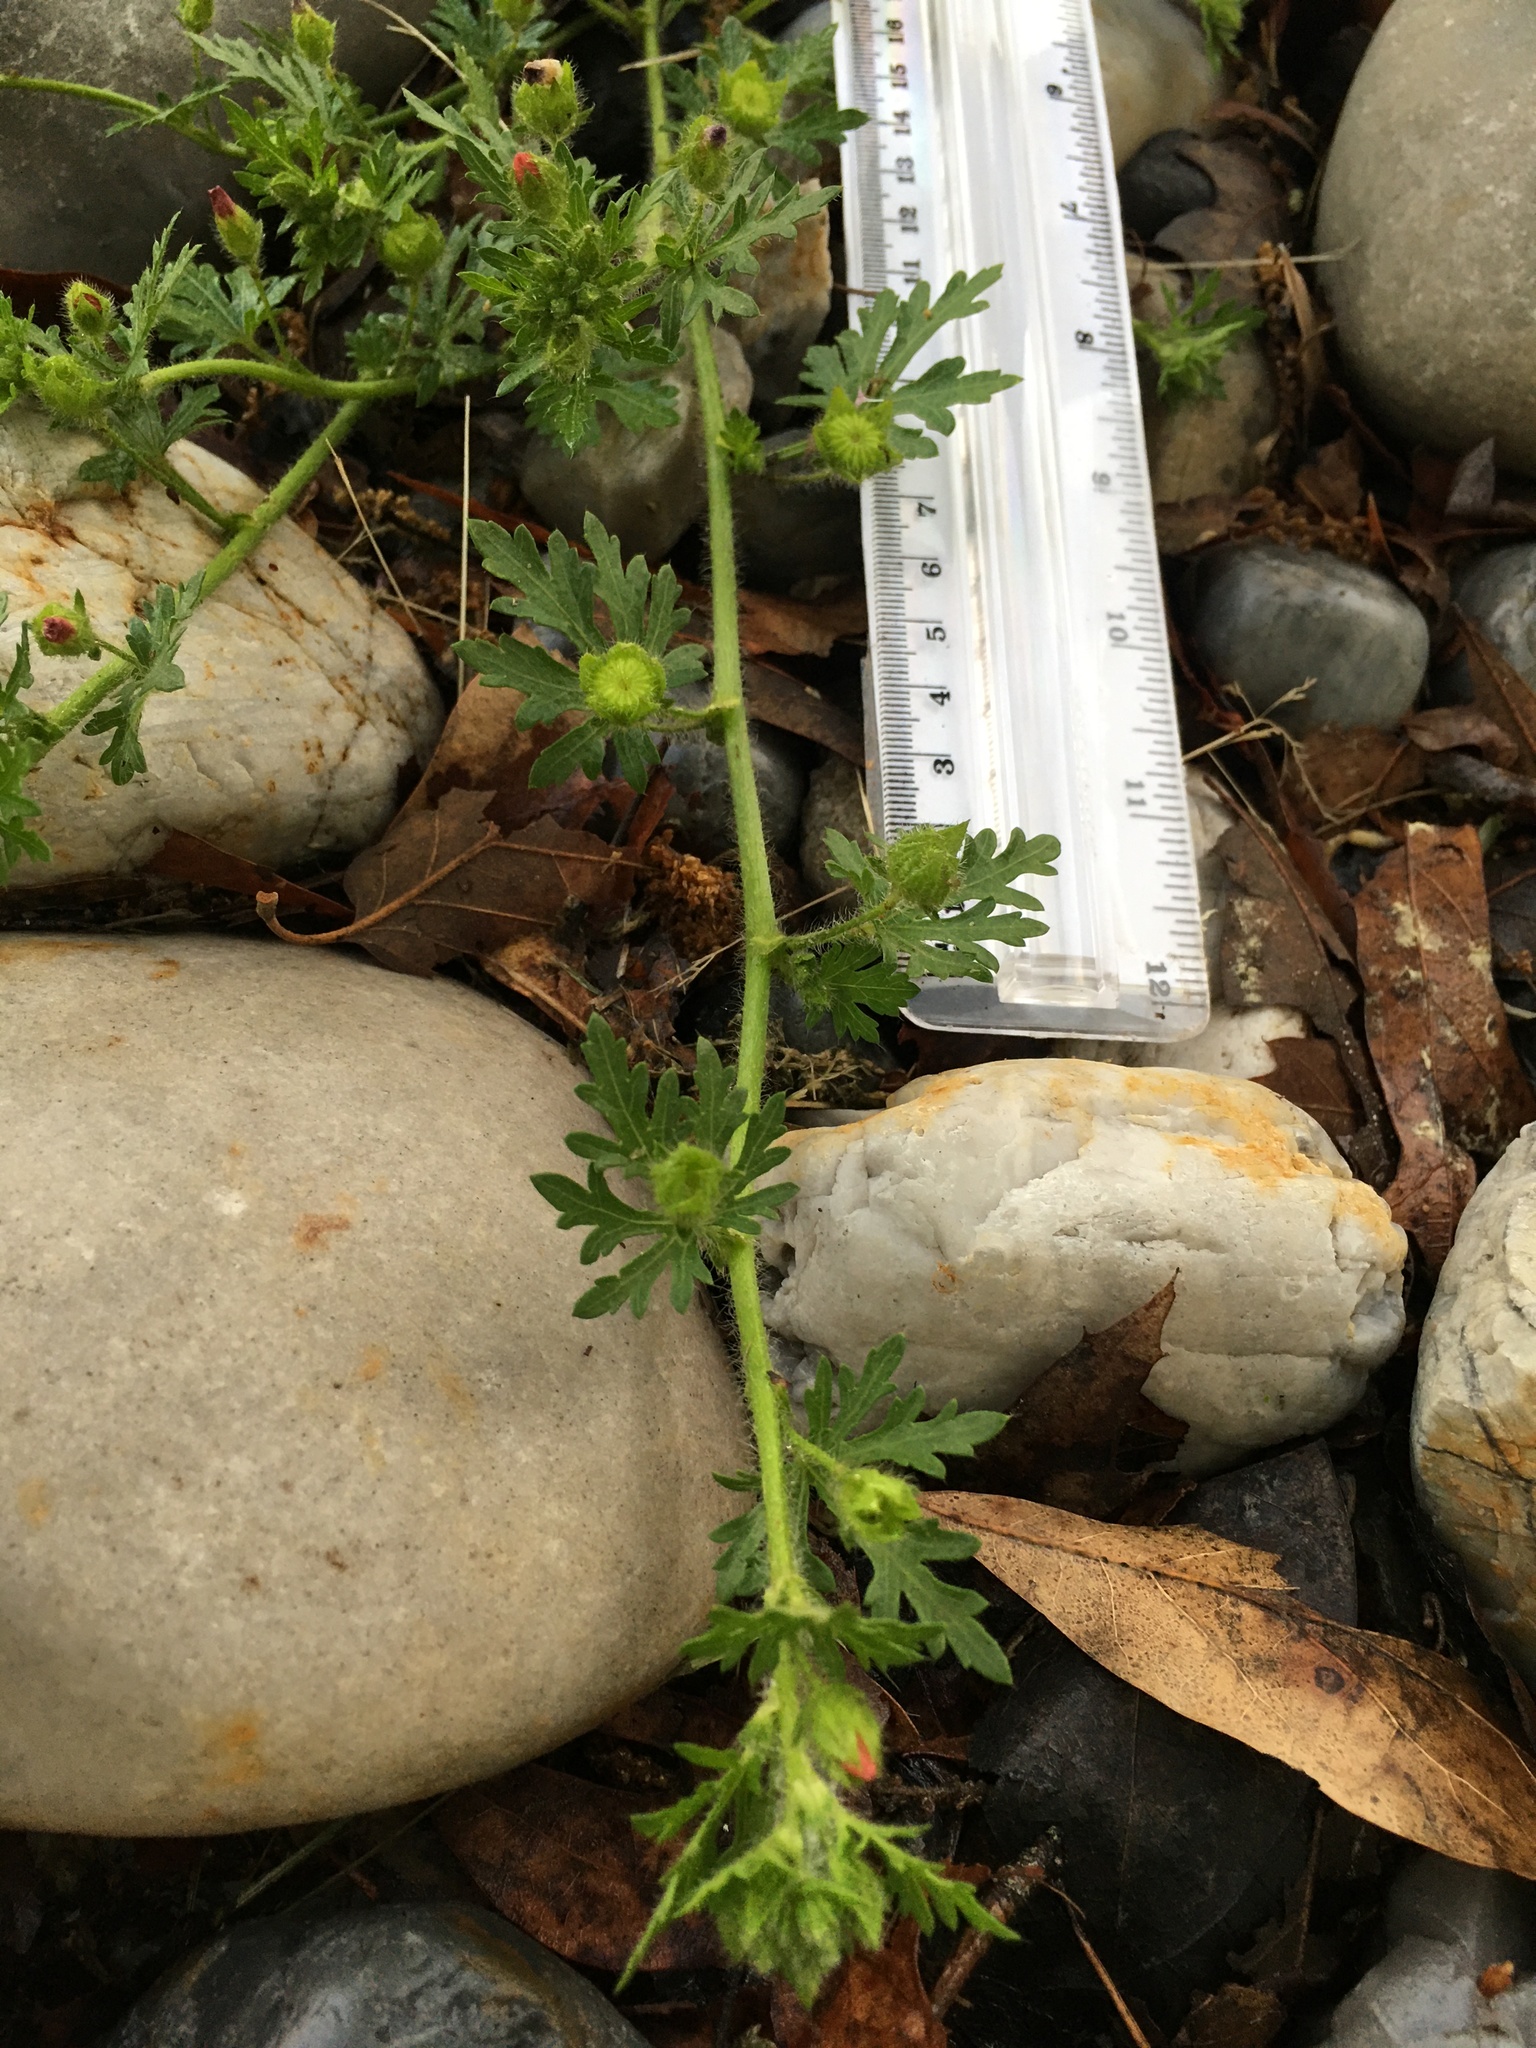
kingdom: Plantae
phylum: Tracheophyta
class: Magnoliopsida
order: Malvales
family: Malvaceae
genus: Modiola
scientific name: Modiola caroliniana
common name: Carolina bristlemallow
